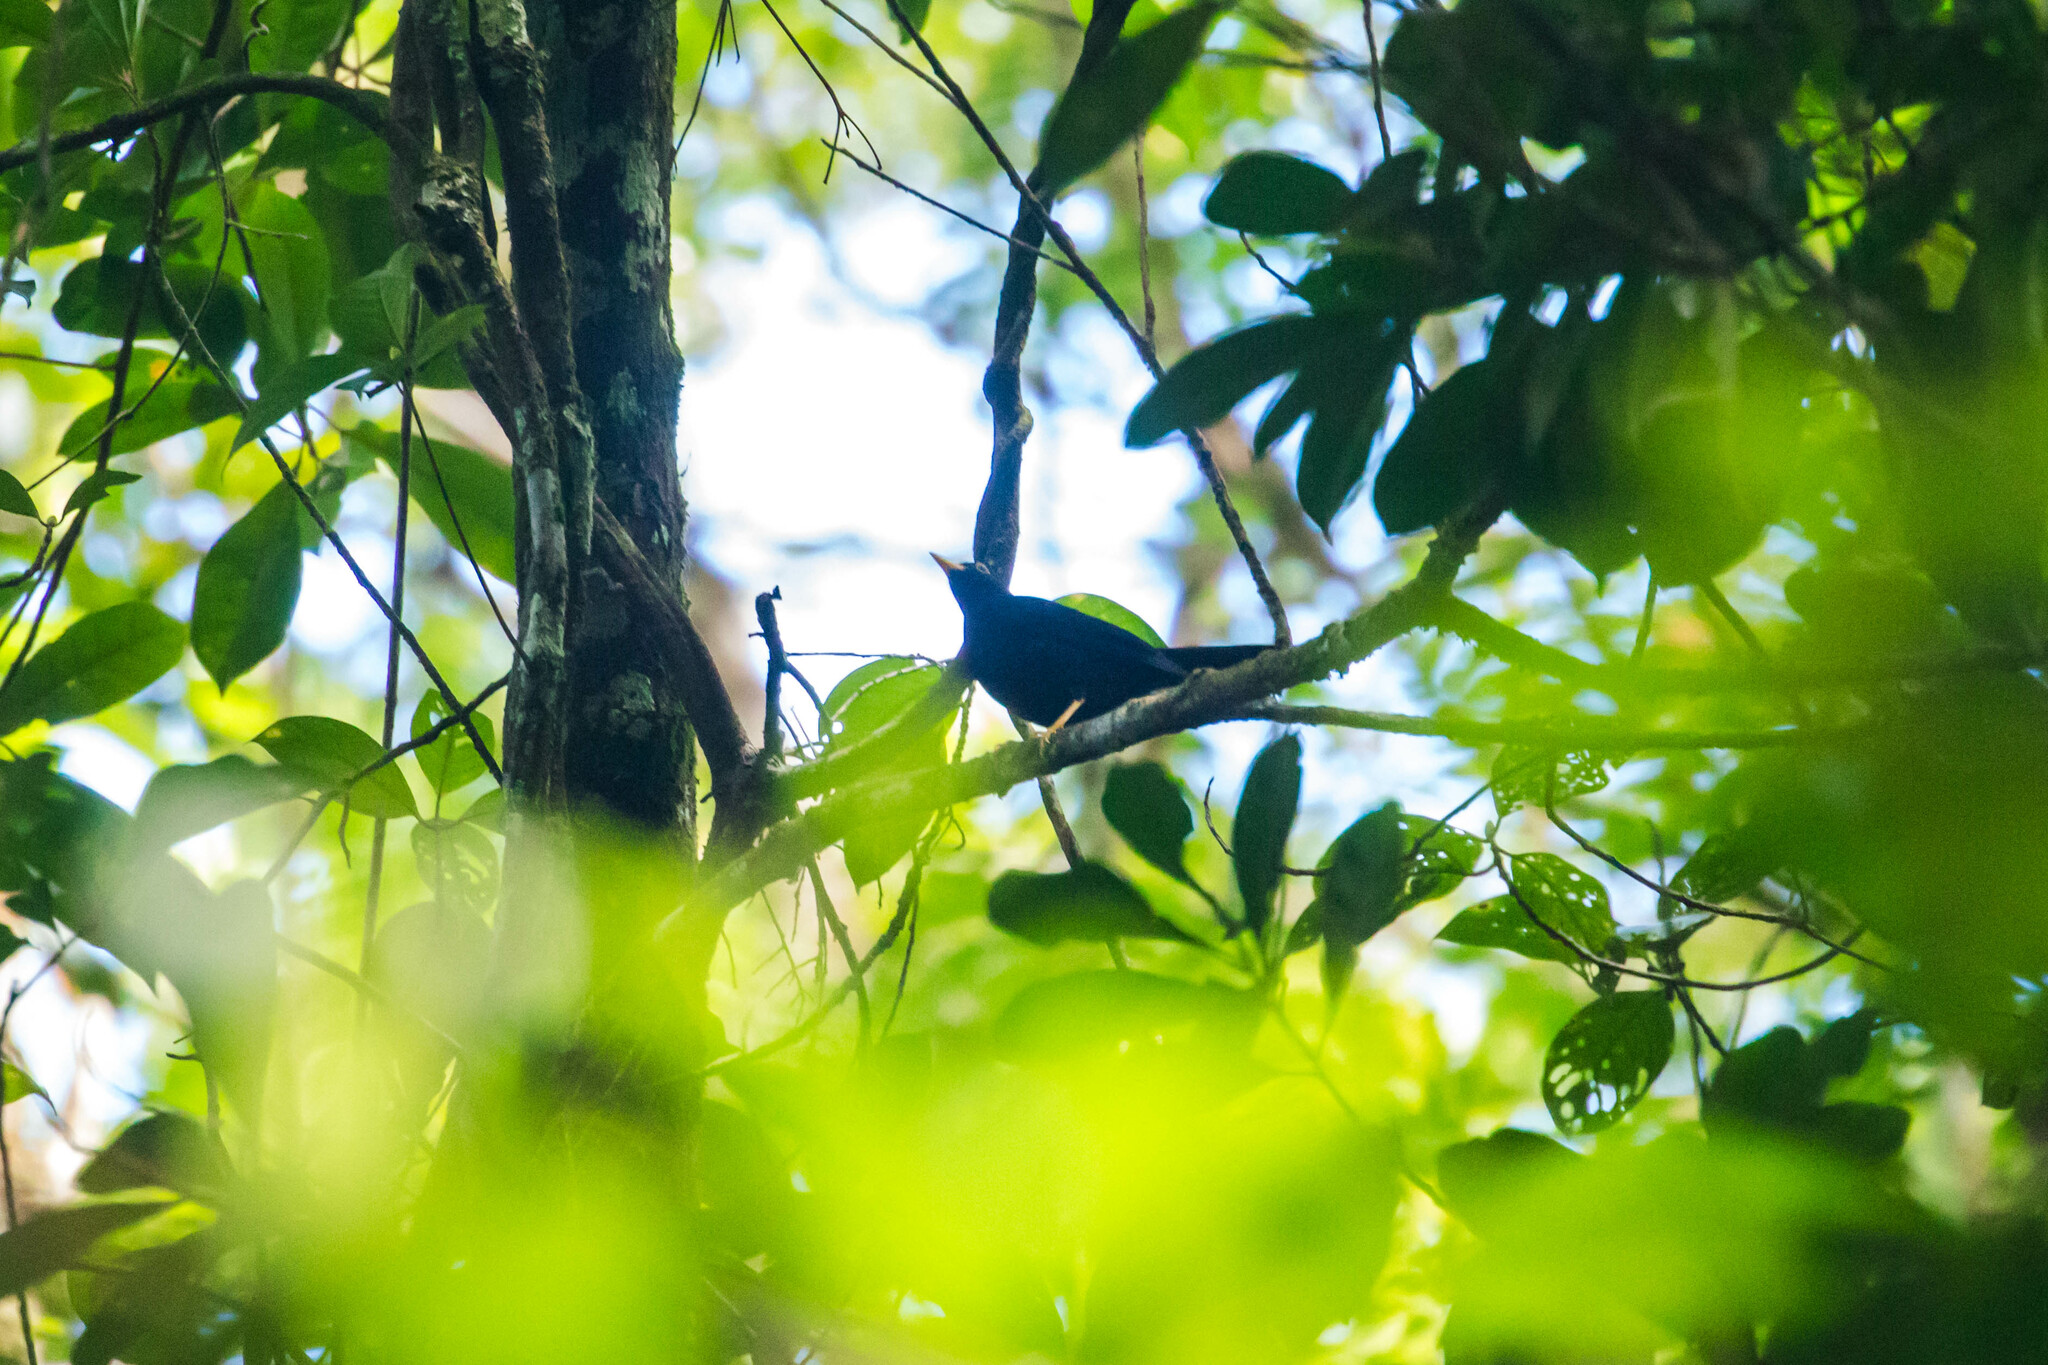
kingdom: Animalia
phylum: Chordata
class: Aves
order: Passeriformes
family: Turdidae
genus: Turdus
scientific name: Turdus flavipes
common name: Yellow-legged thrush
